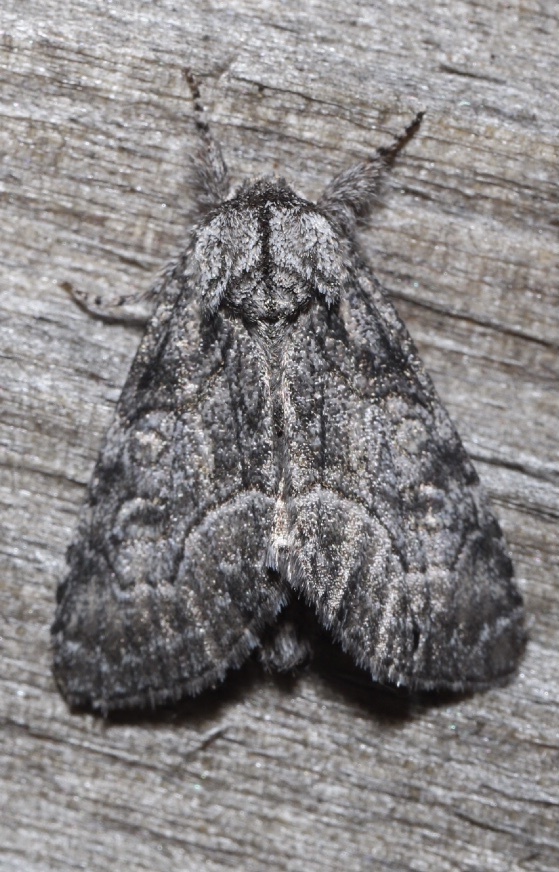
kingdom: Animalia
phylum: Arthropoda
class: Insecta
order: Lepidoptera
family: Noctuidae
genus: Raphia
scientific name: Raphia frater
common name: Brother
